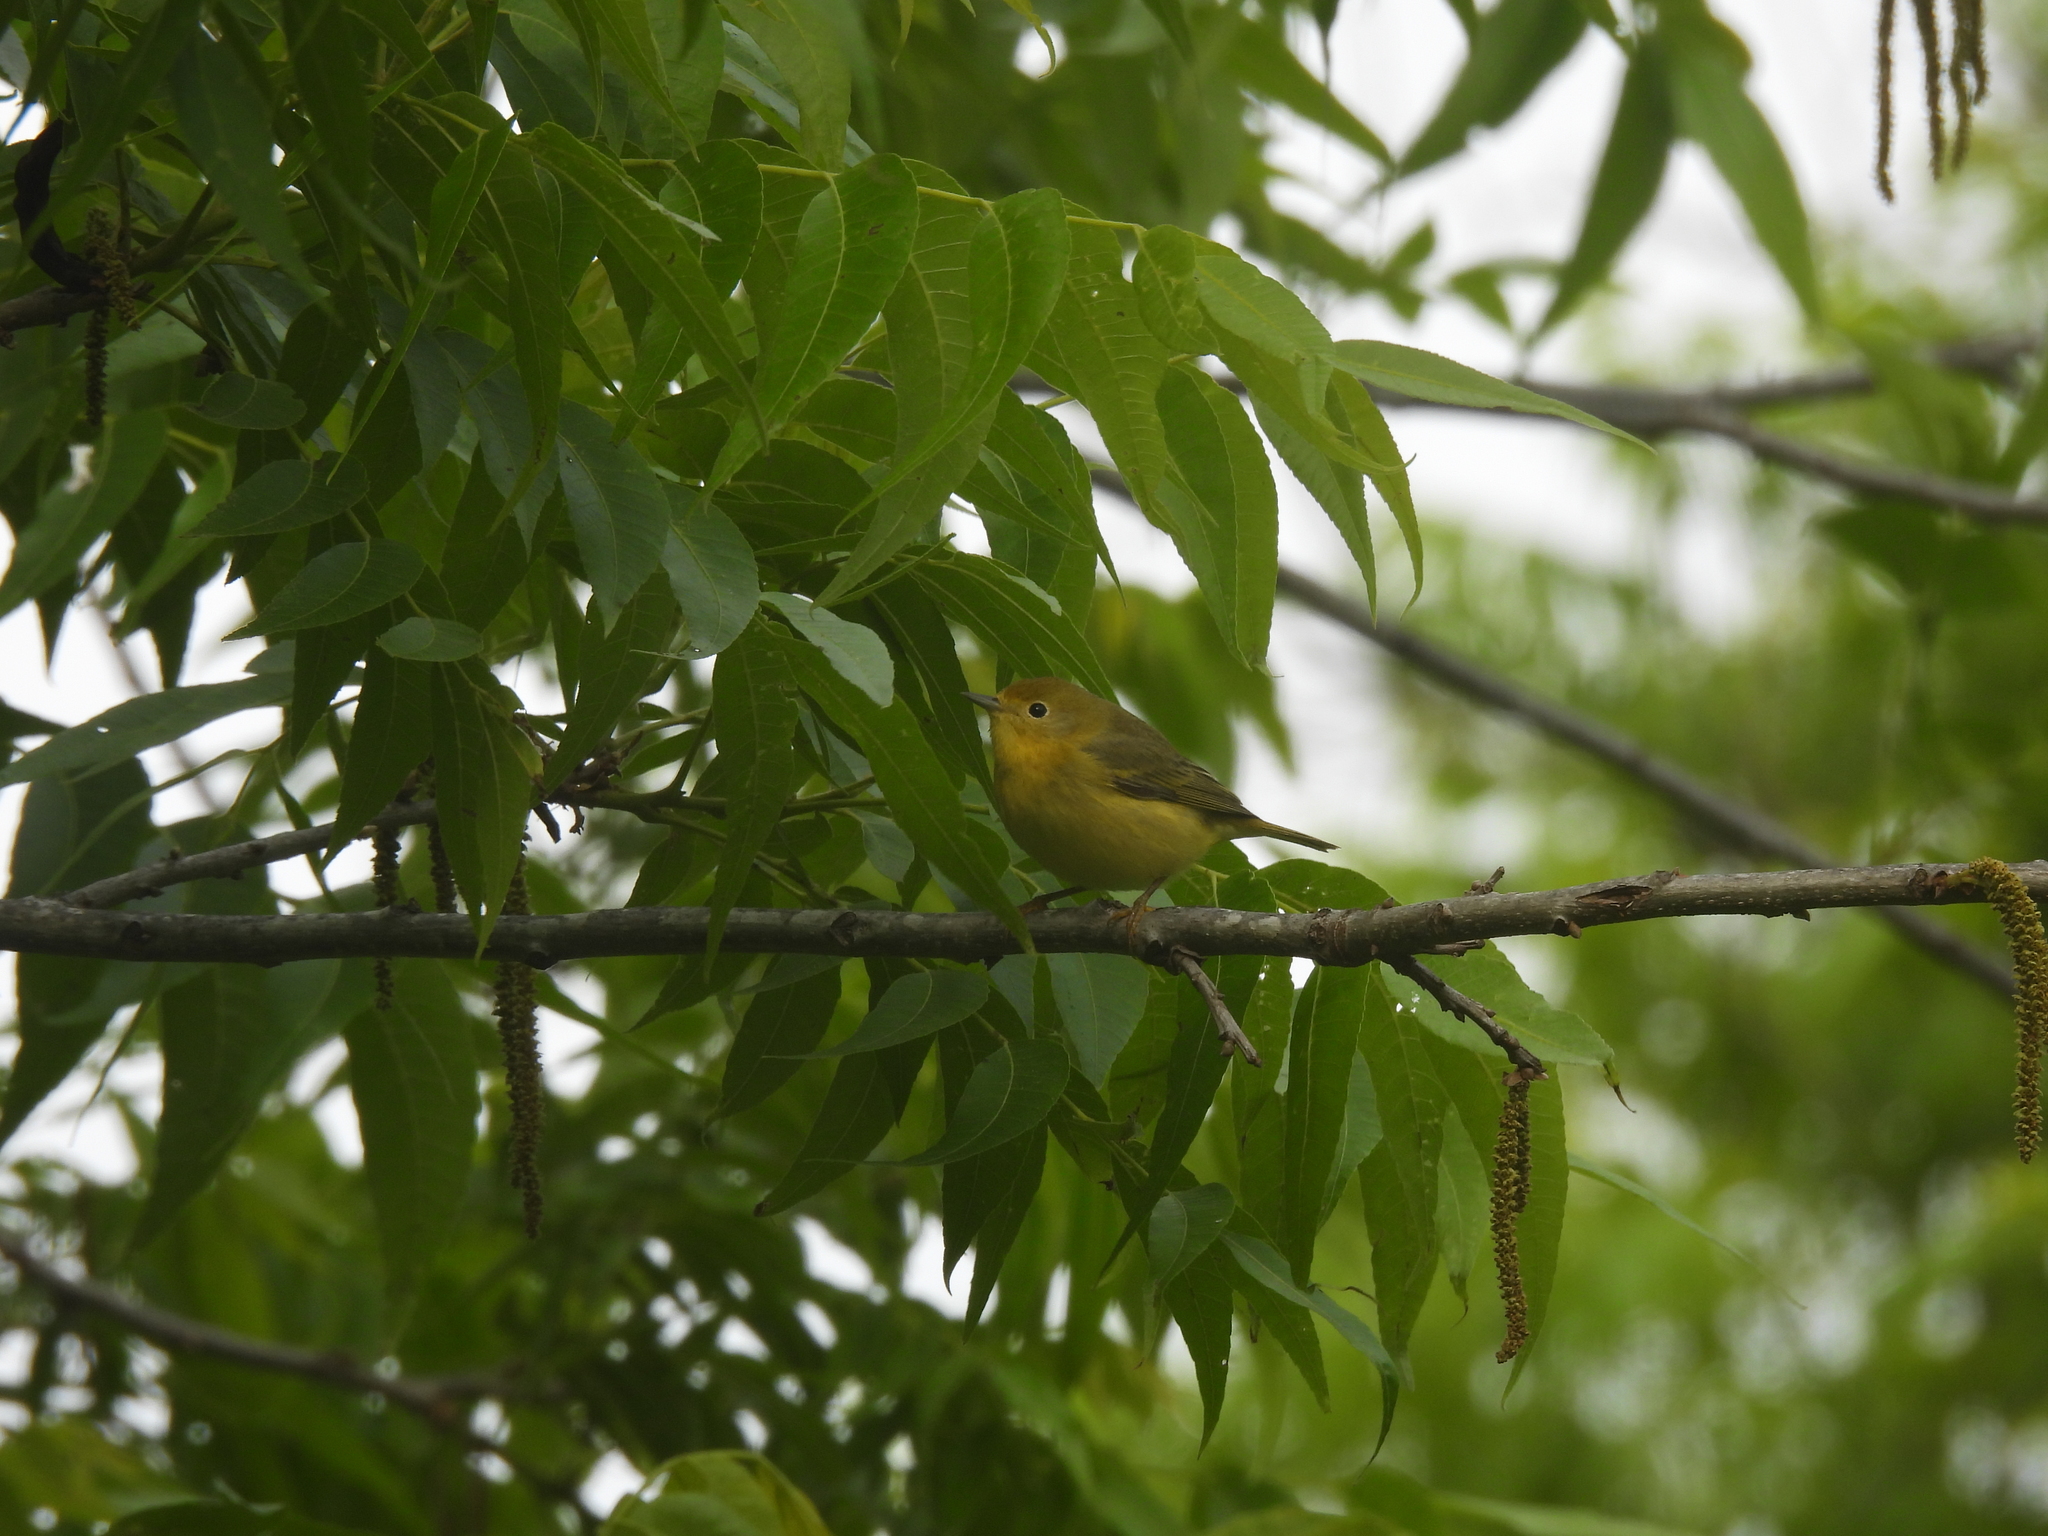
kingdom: Animalia
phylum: Chordata
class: Aves
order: Passeriformes
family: Parulidae
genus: Setophaga
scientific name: Setophaga petechia
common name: Yellow warbler
